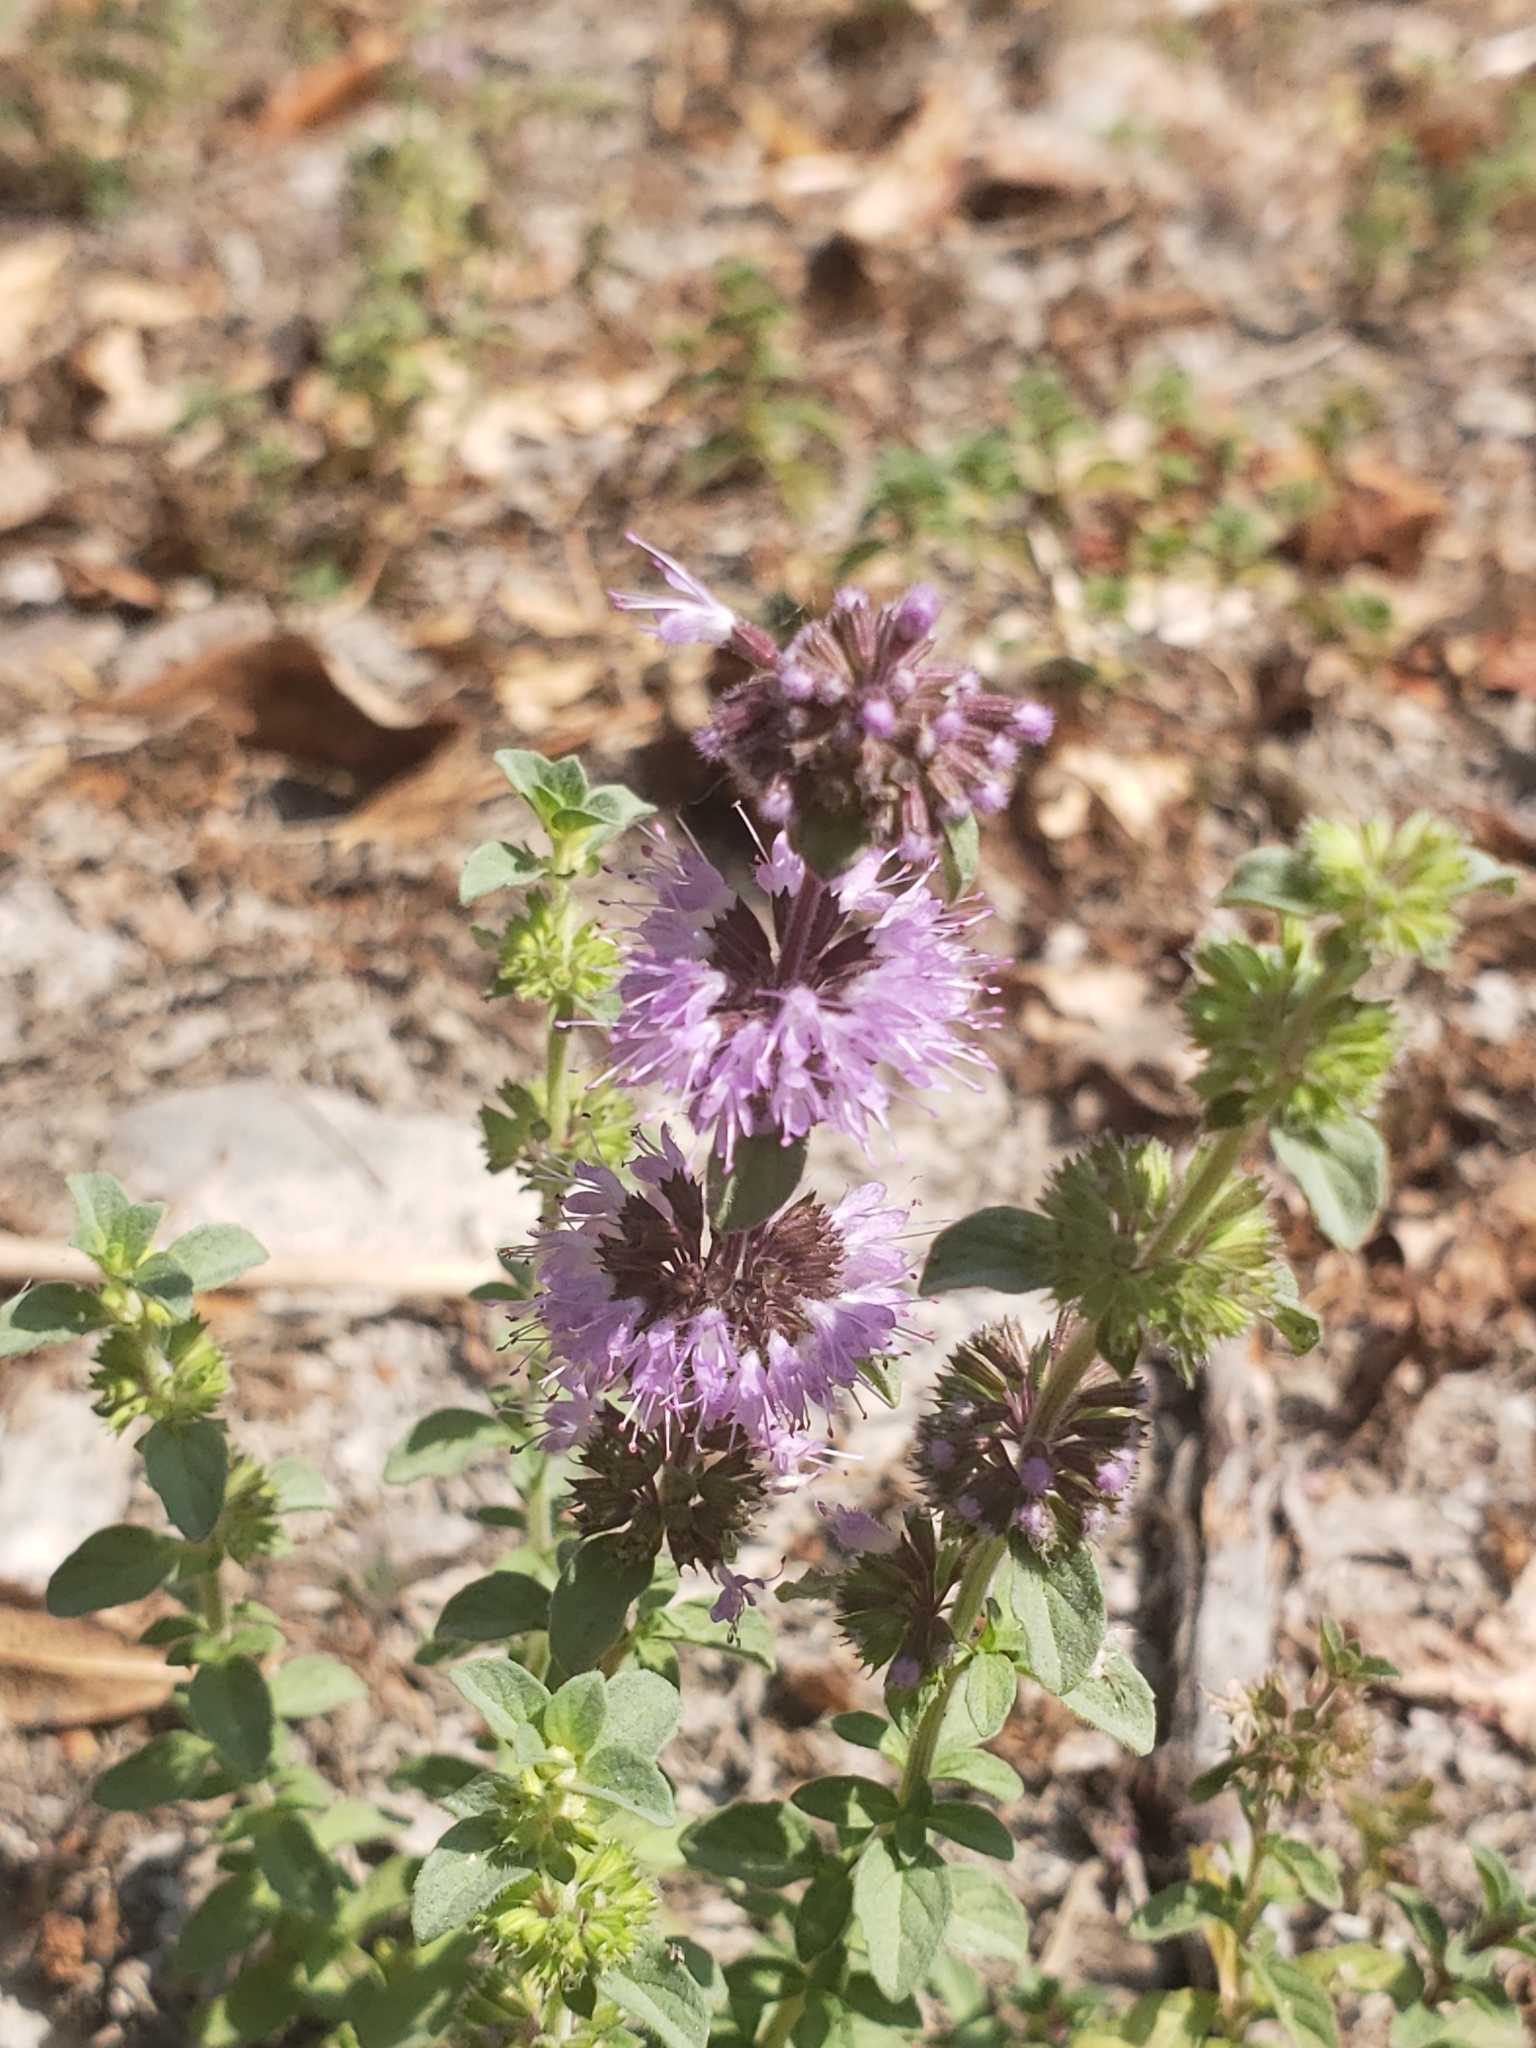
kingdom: Plantae
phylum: Tracheophyta
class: Magnoliopsida
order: Lamiales
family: Lamiaceae
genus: Mentha
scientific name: Mentha pulegium
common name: Pennyroyal
